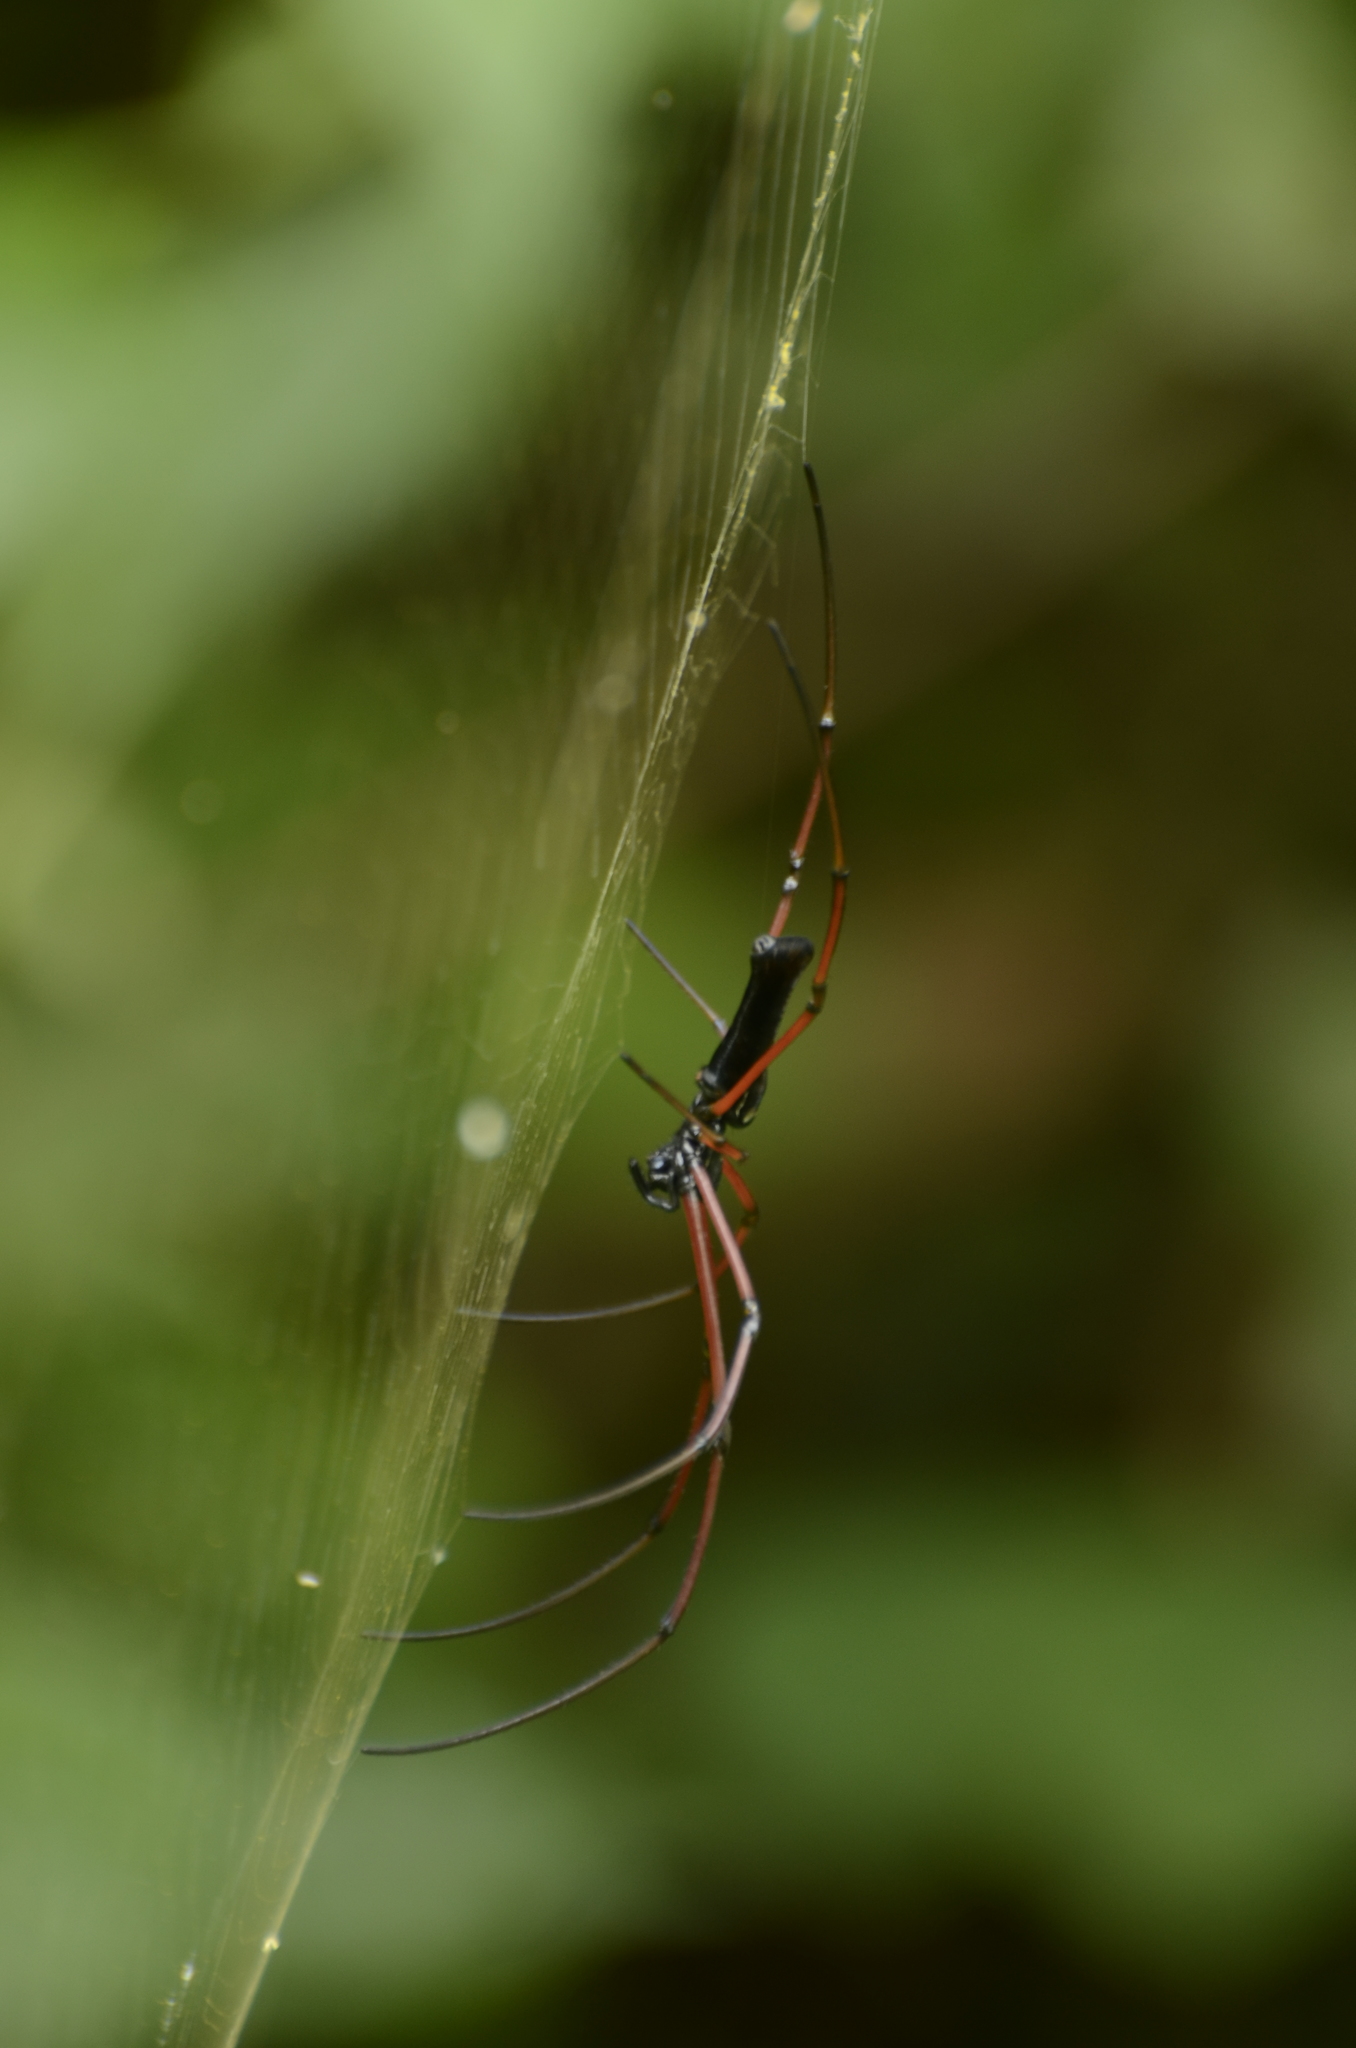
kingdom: Animalia
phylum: Arthropoda
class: Arachnida
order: Araneae
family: Araneidae
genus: Nephila
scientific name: Nephila kuhli
